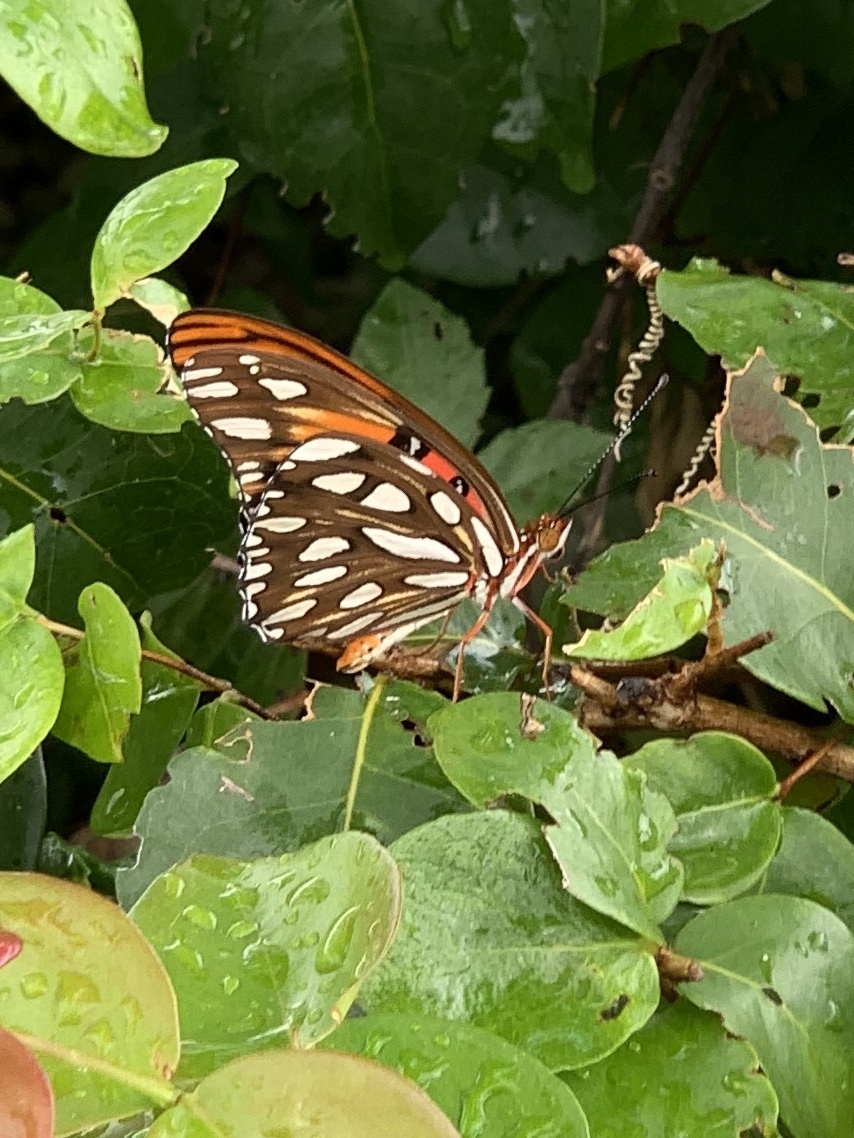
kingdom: Animalia
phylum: Arthropoda
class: Insecta
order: Lepidoptera
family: Nymphalidae
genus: Dione
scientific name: Dione vanillae
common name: Gulf fritillary
